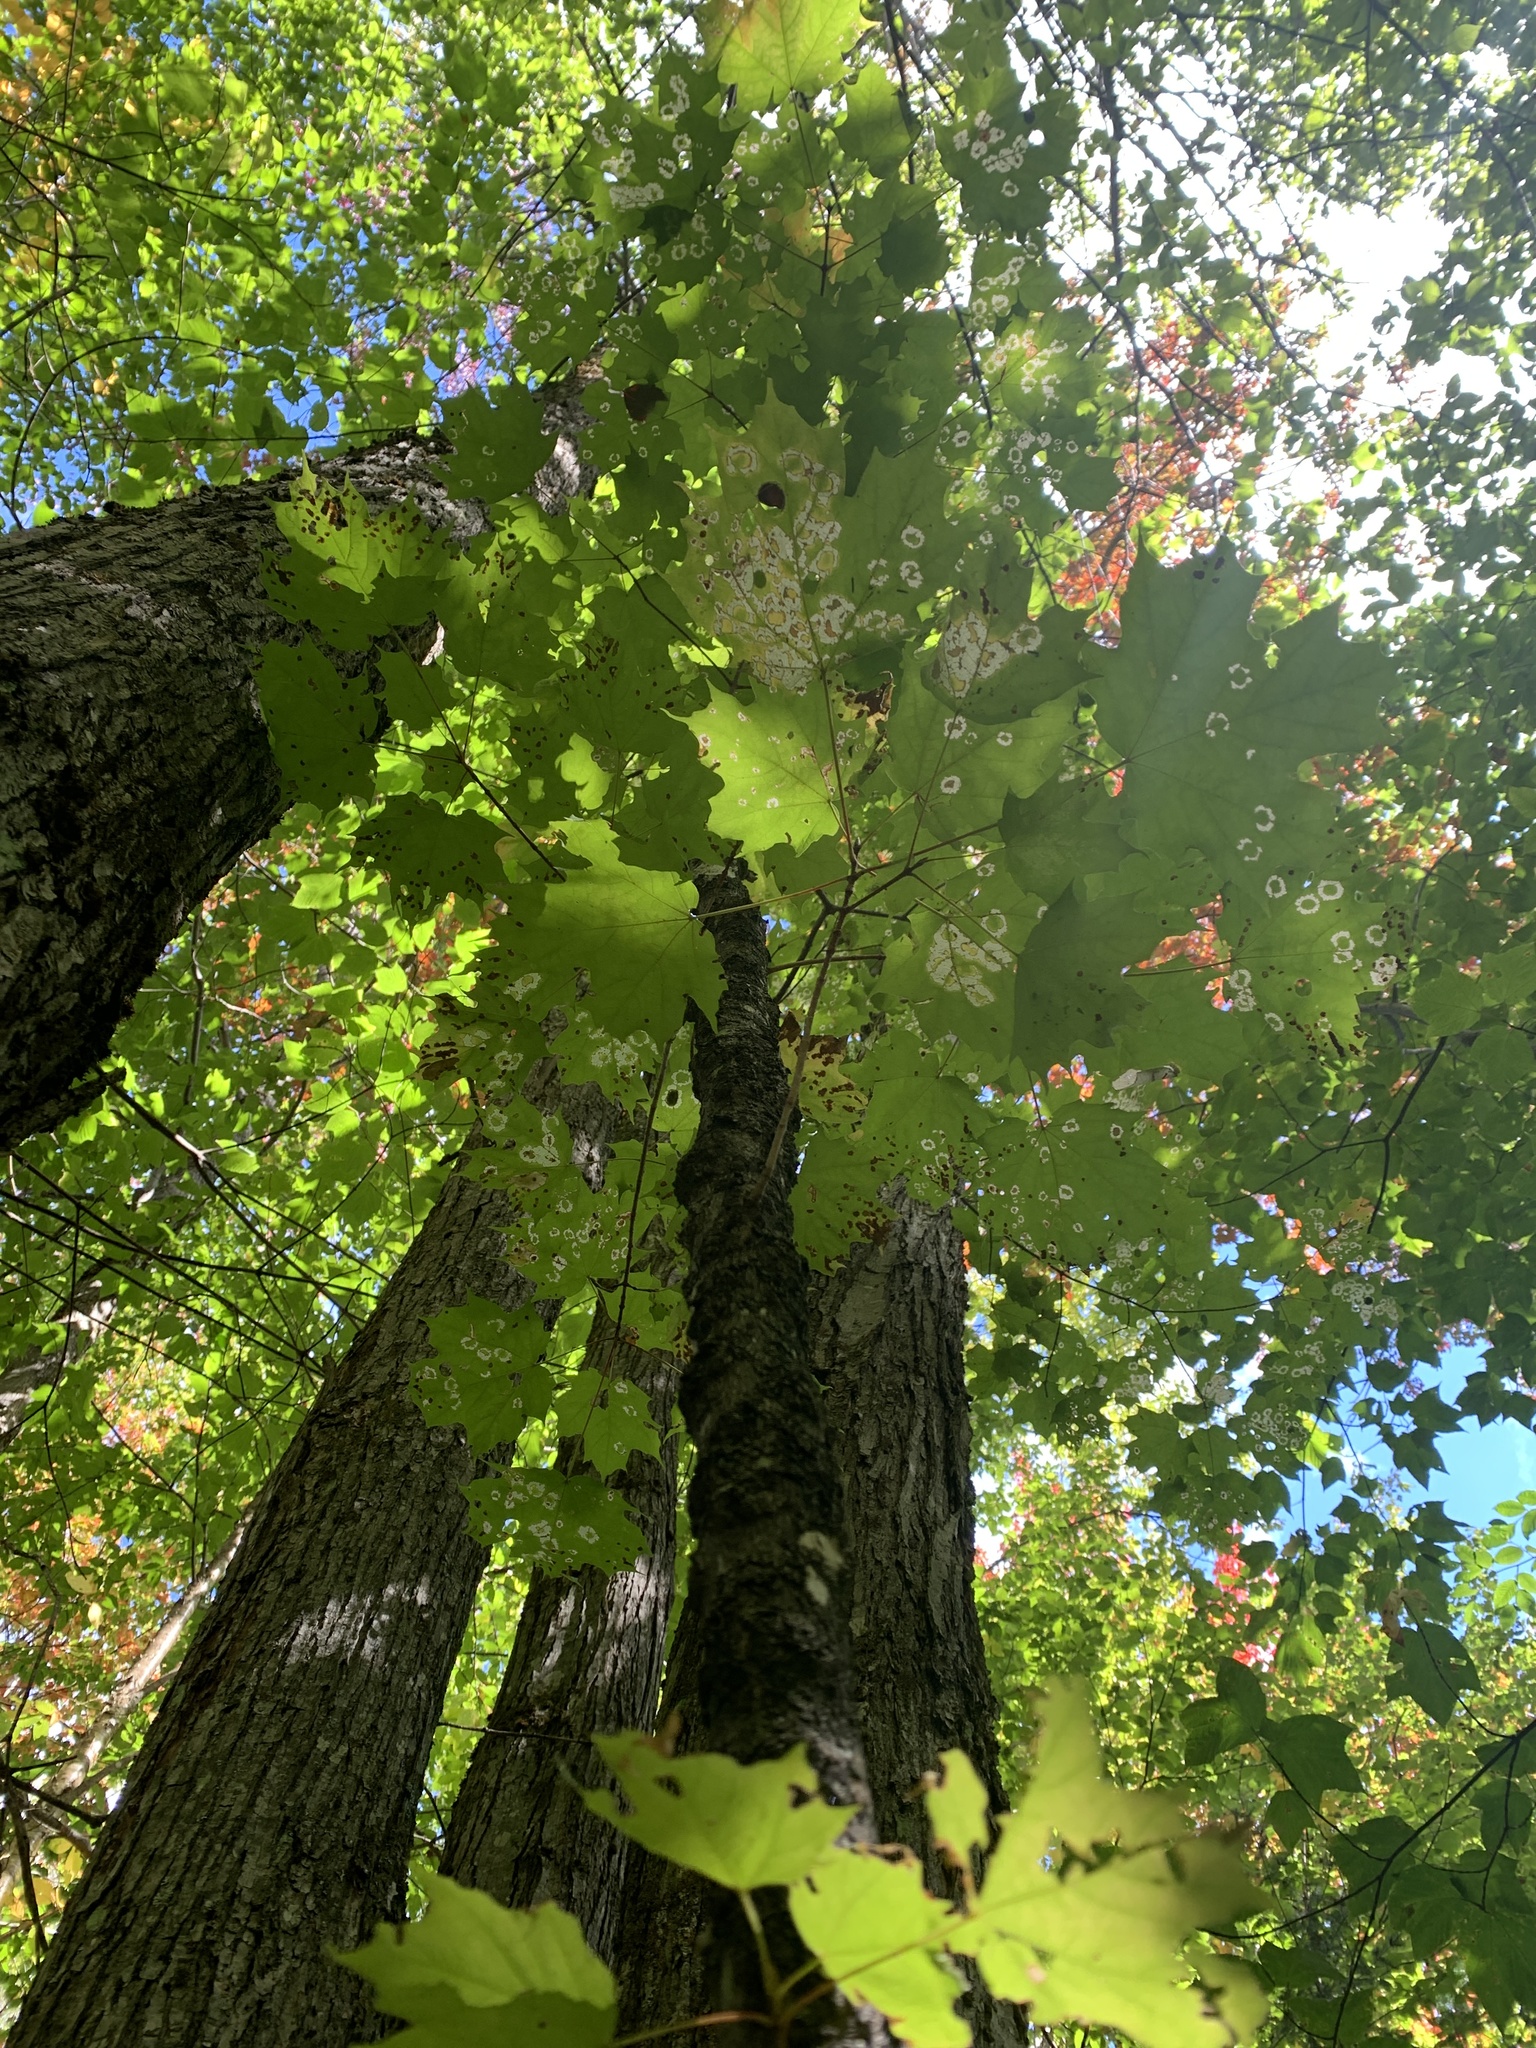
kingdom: Plantae
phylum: Tracheophyta
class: Magnoliopsida
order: Sapindales
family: Sapindaceae
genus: Acer
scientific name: Acer saccharum
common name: Sugar maple
